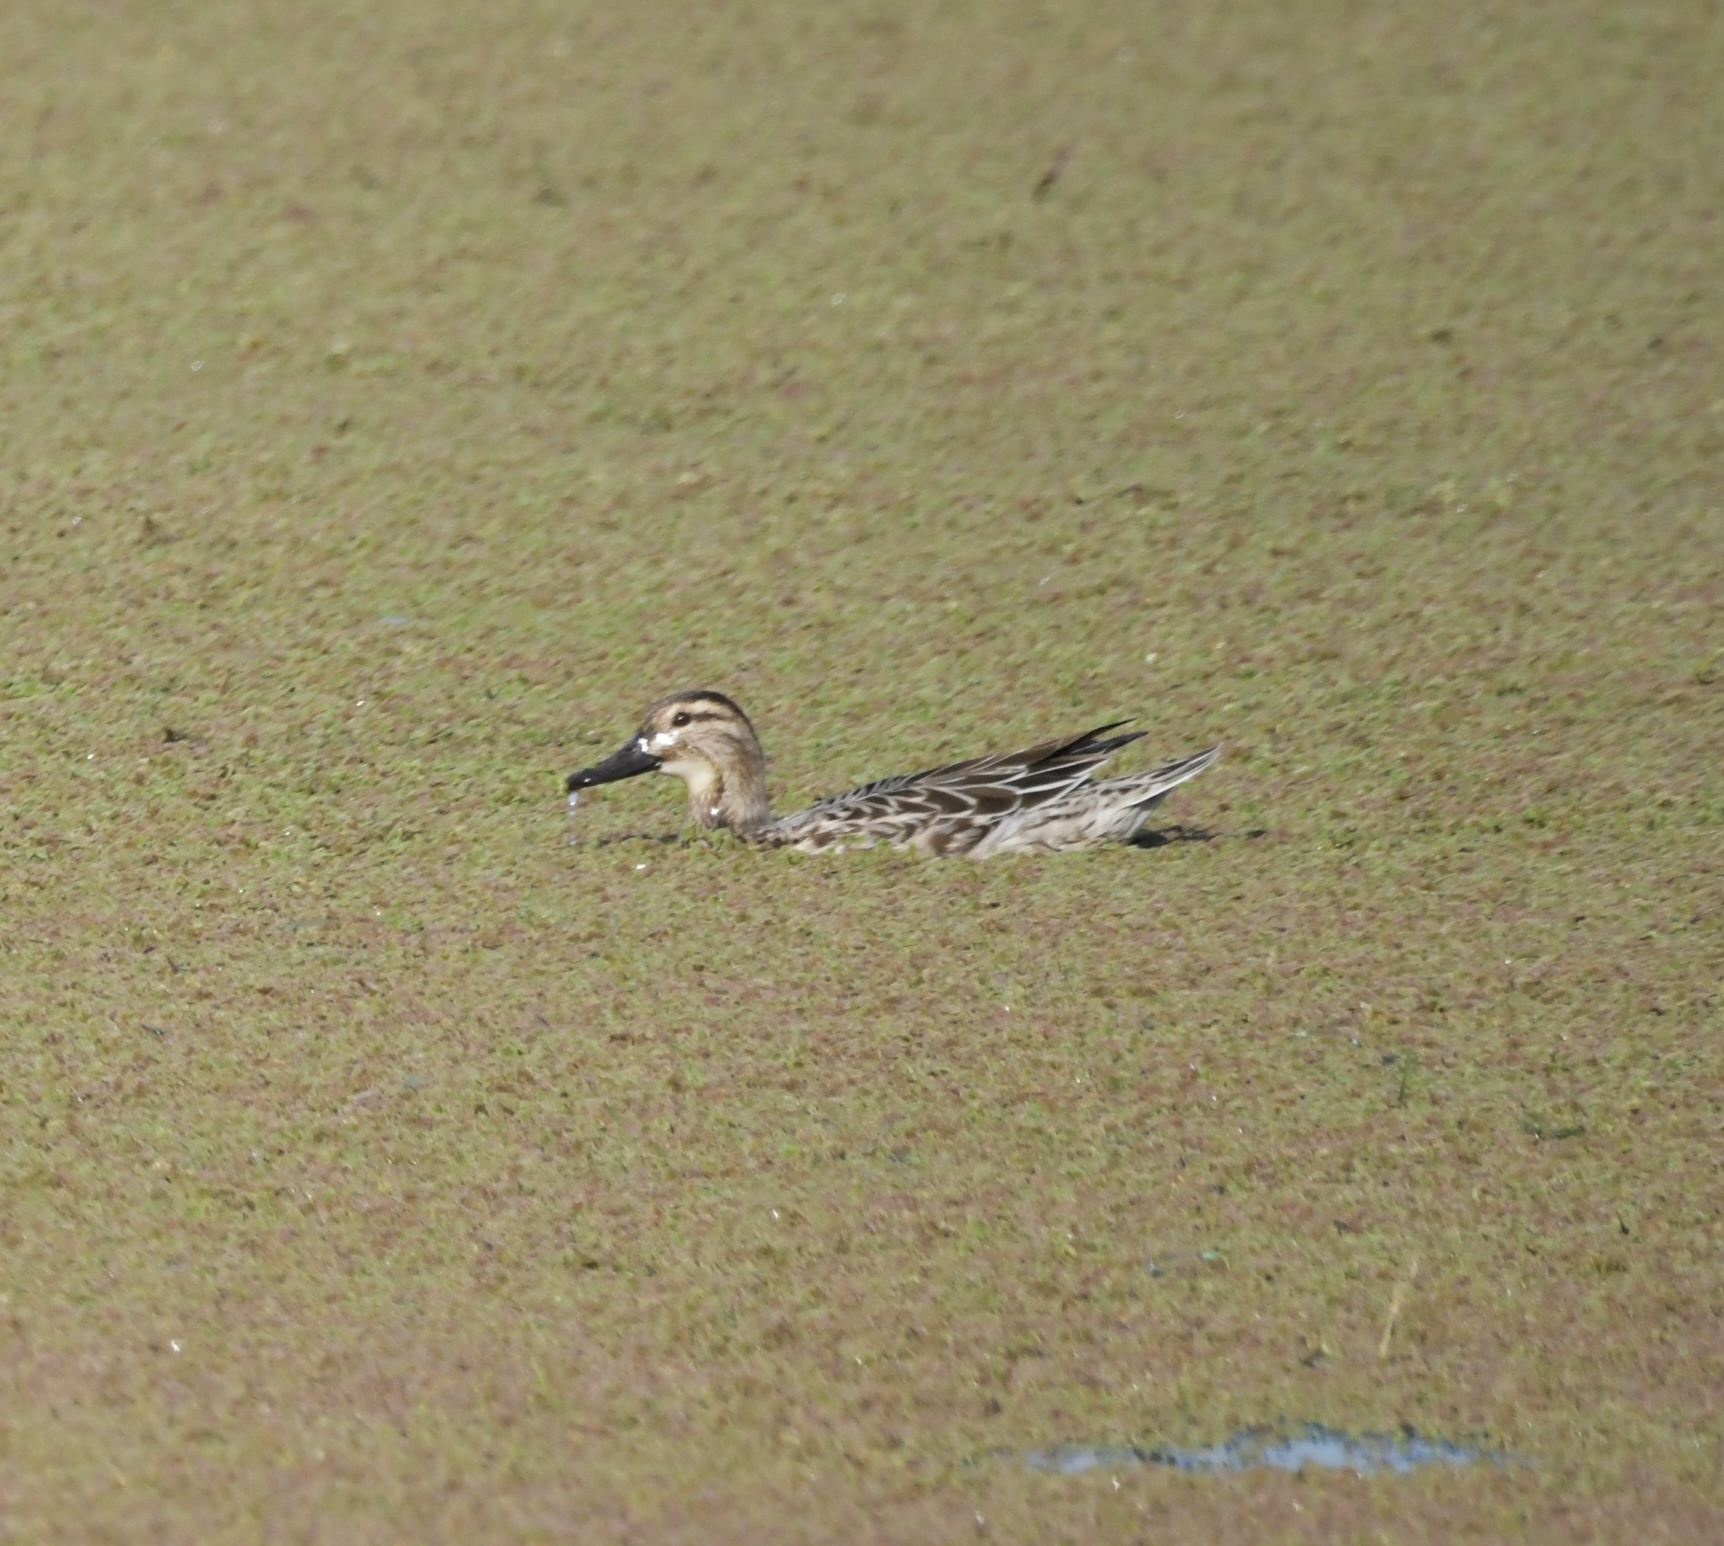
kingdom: Animalia
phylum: Chordata
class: Aves
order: Anseriformes
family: Anatidae
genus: Spatula
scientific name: Spatula querquedula
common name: Garganey
